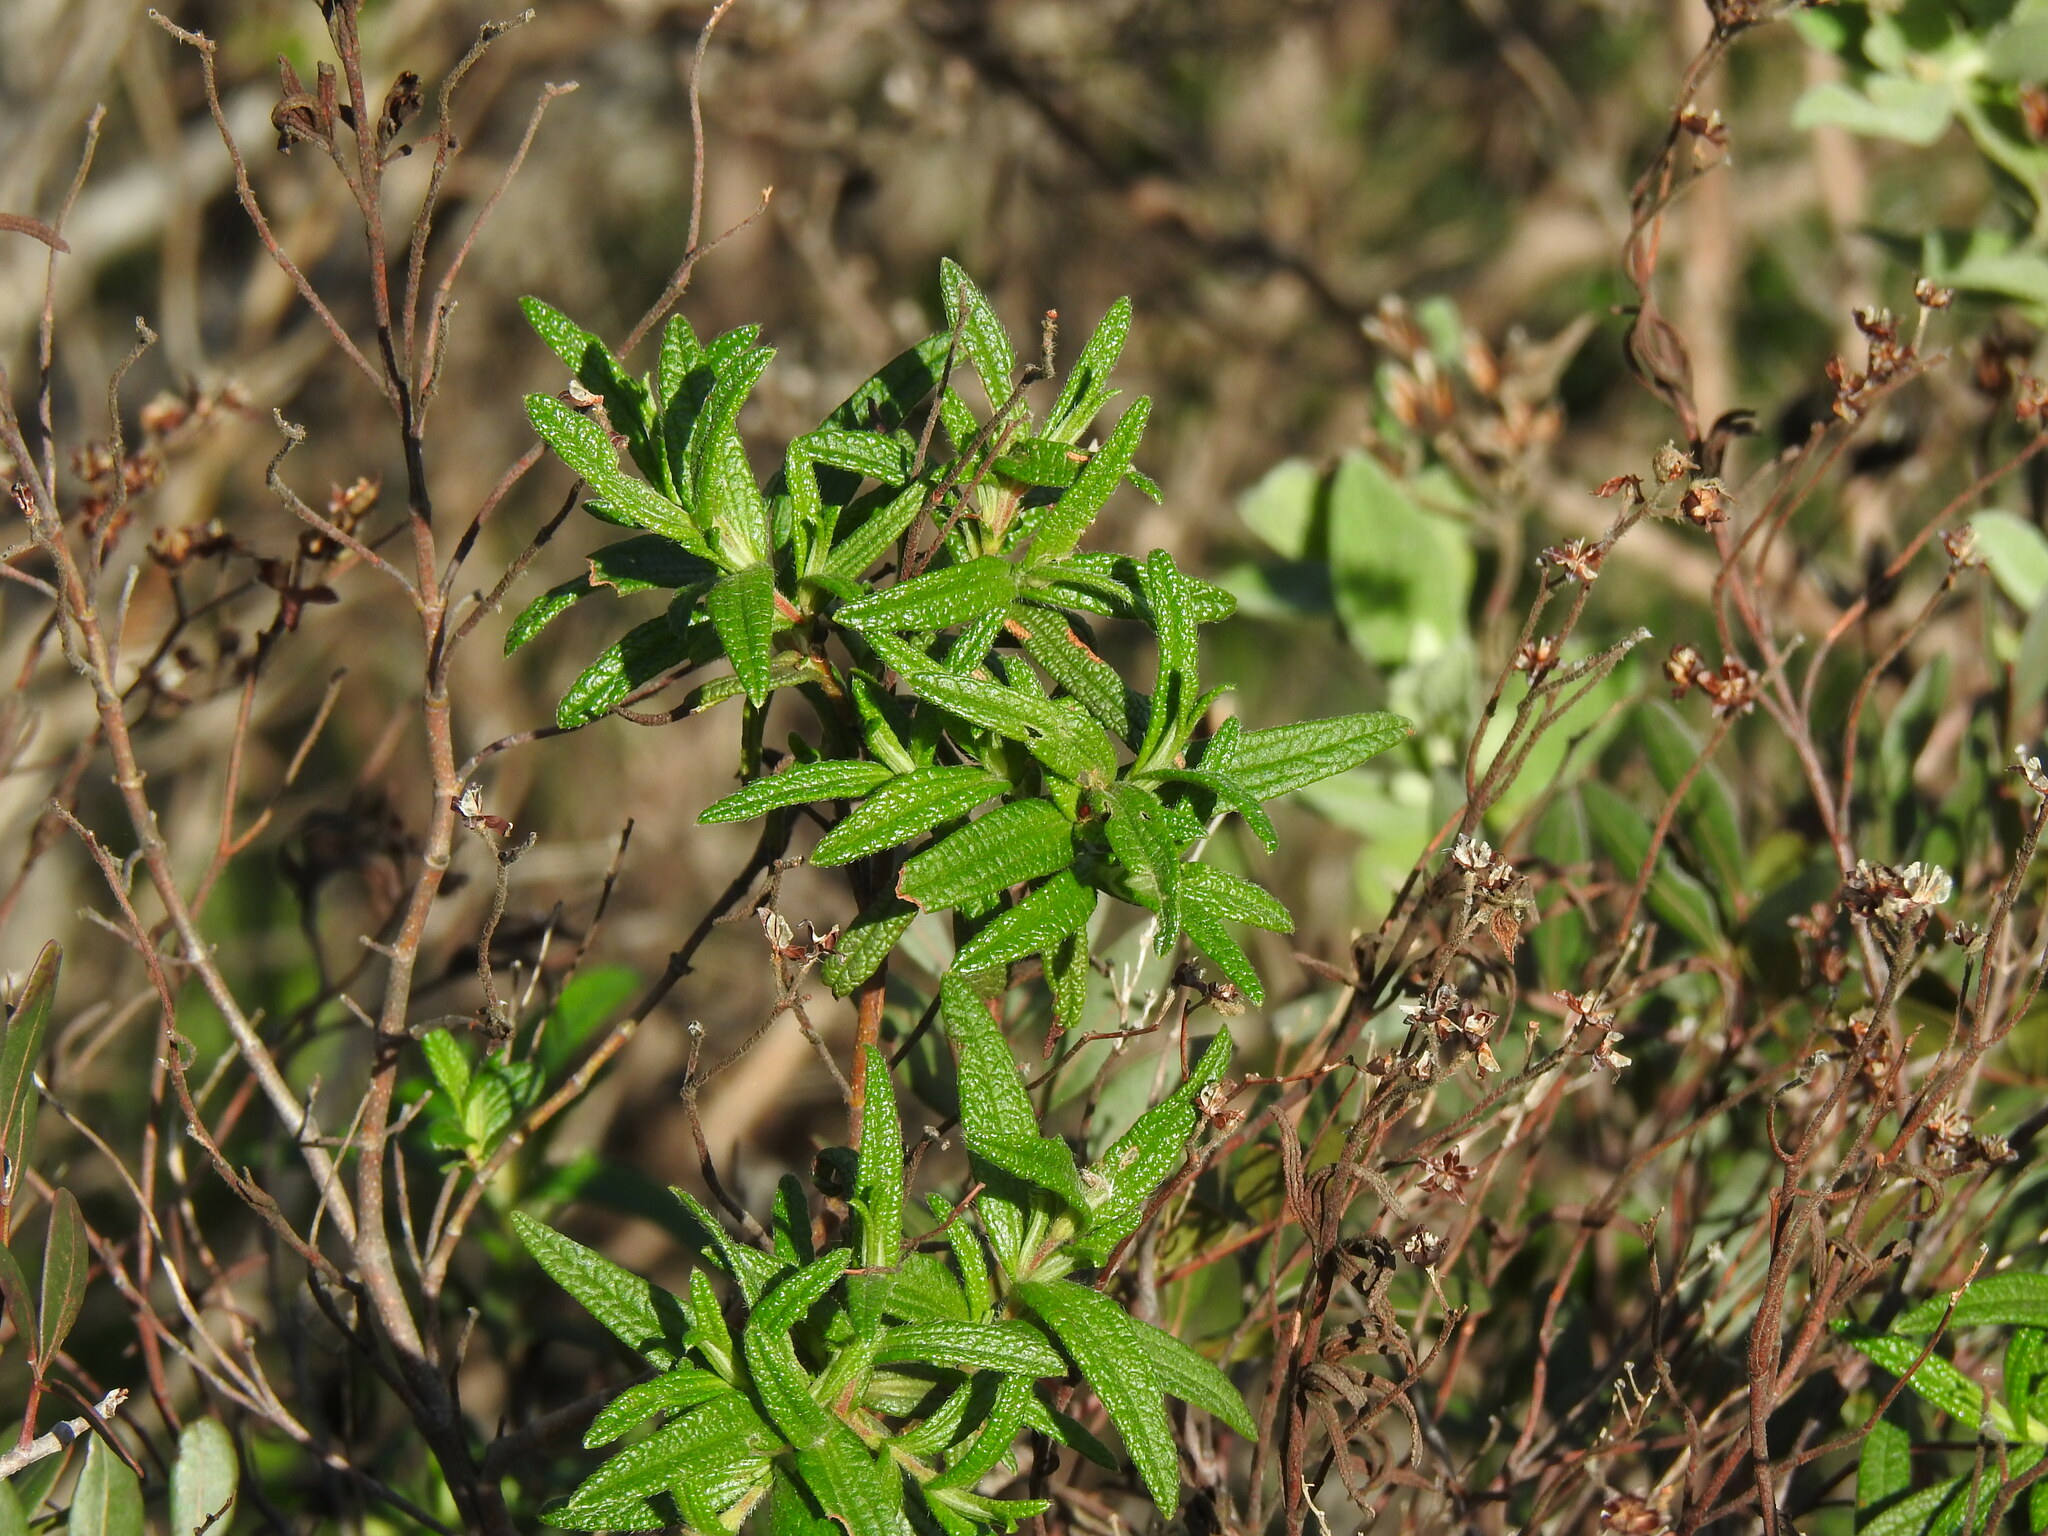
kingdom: Plantae
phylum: Tracheophyta
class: Magnoliopsida
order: Malvales
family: Cistaceae
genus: Cistus
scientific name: Cistus monspeliensis
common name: Montpelier cistus
